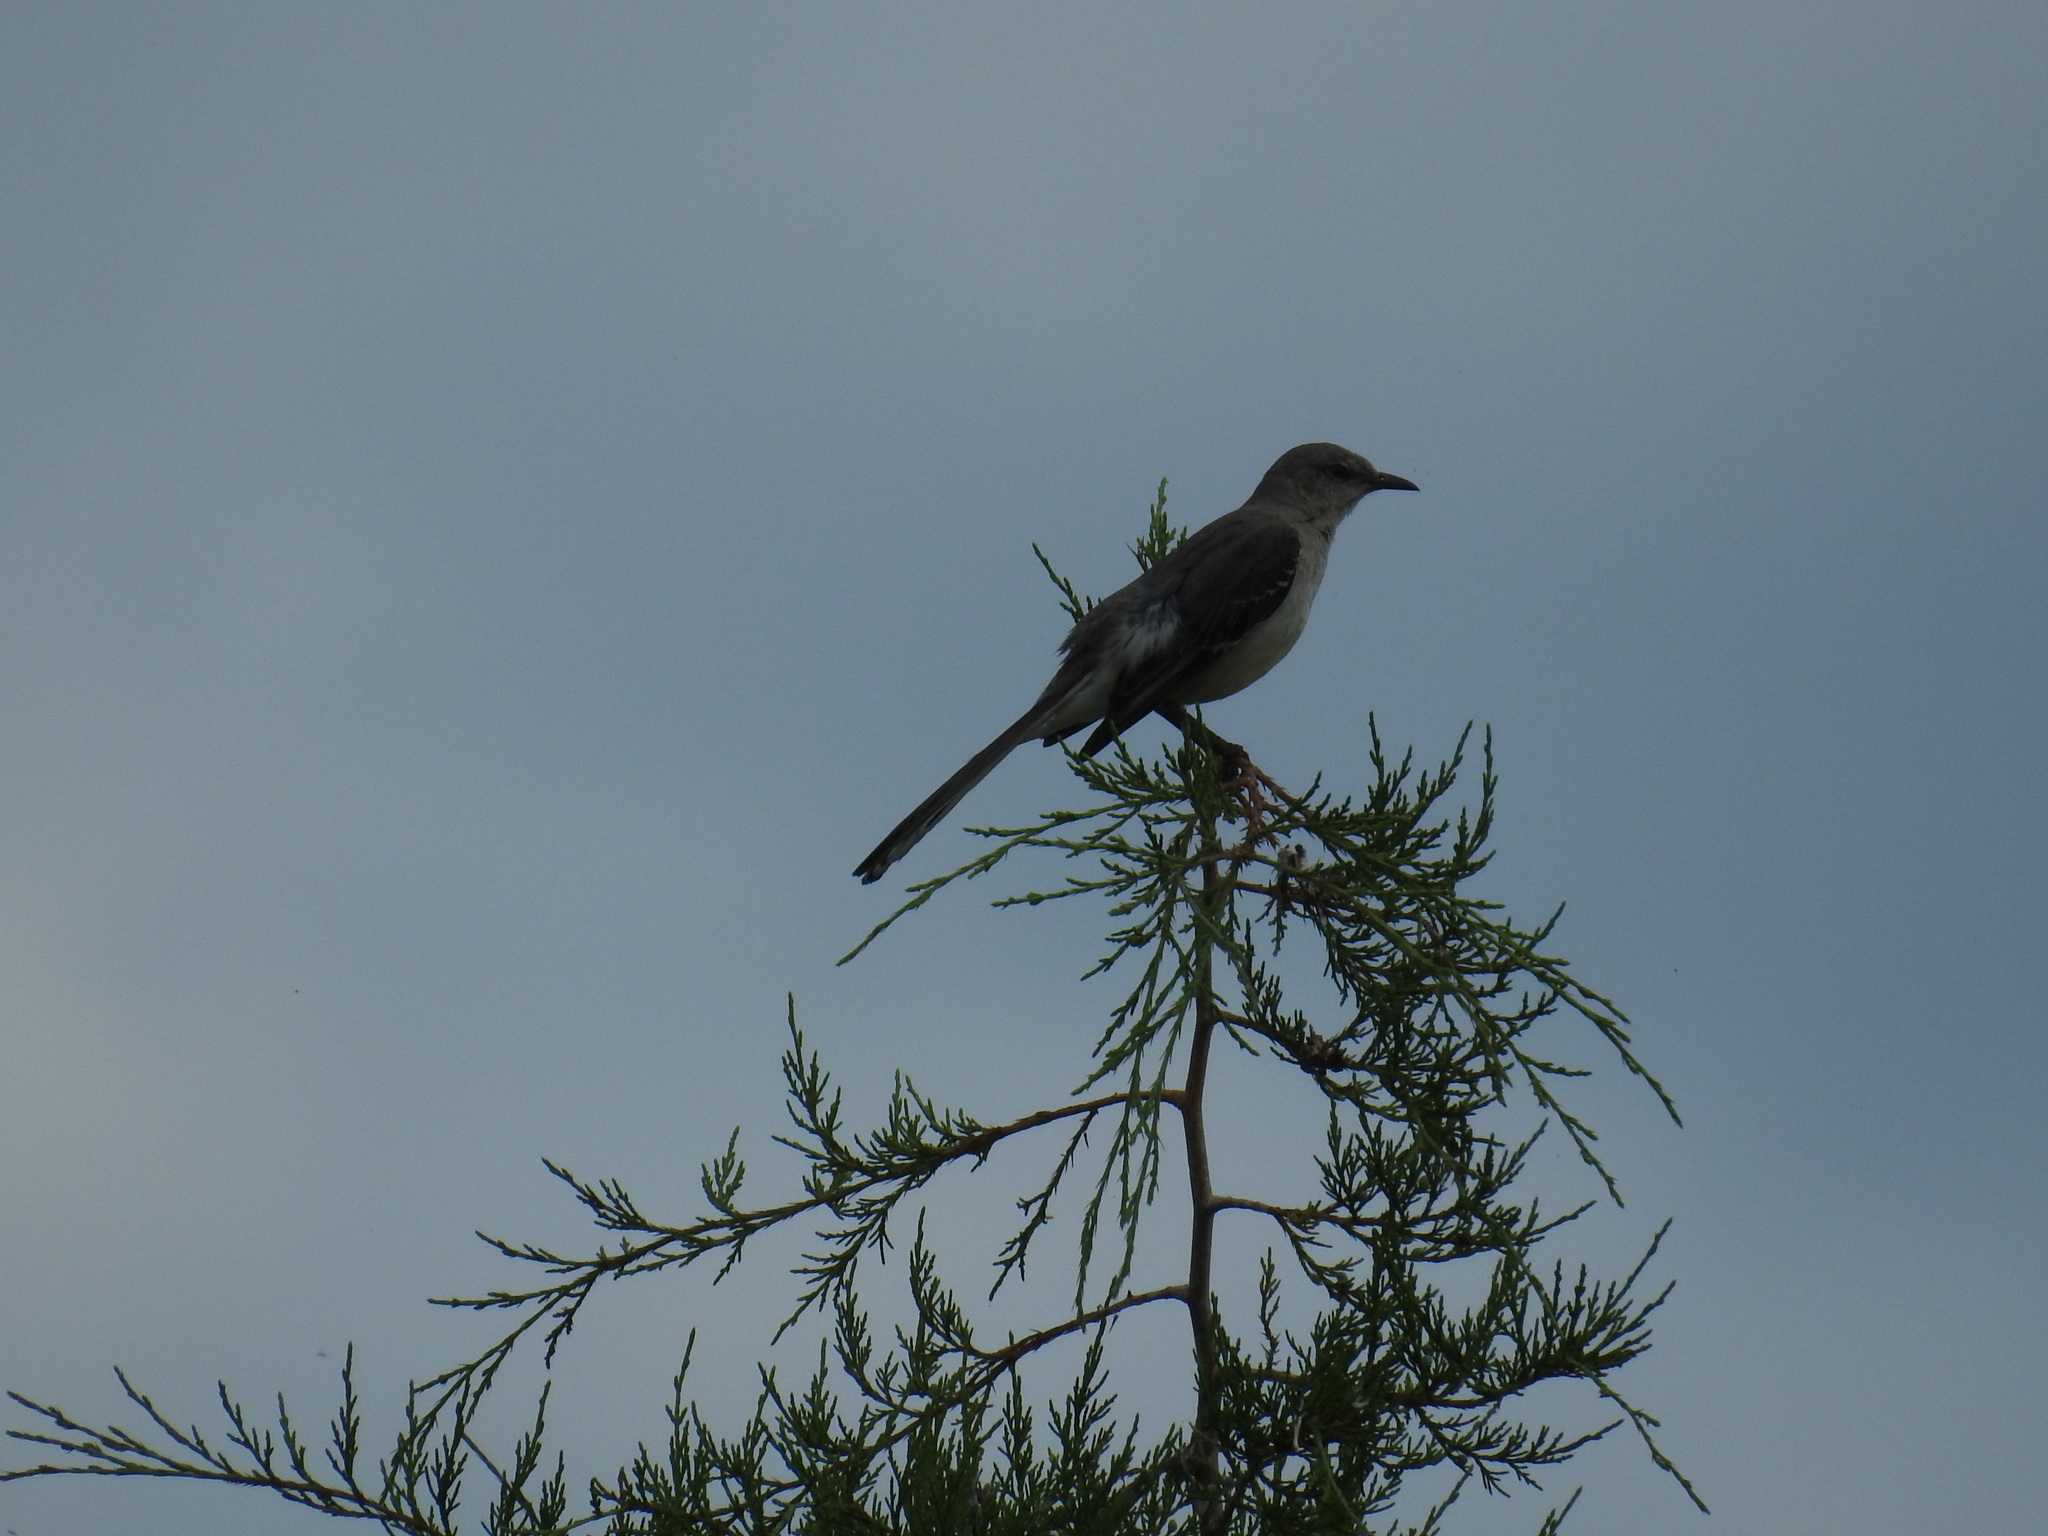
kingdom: Animalia
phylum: Chordata
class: Aves
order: Passeriformes
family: Mimidae
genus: Mimus
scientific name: Mimus polyglottos
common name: Northern mockingbird
